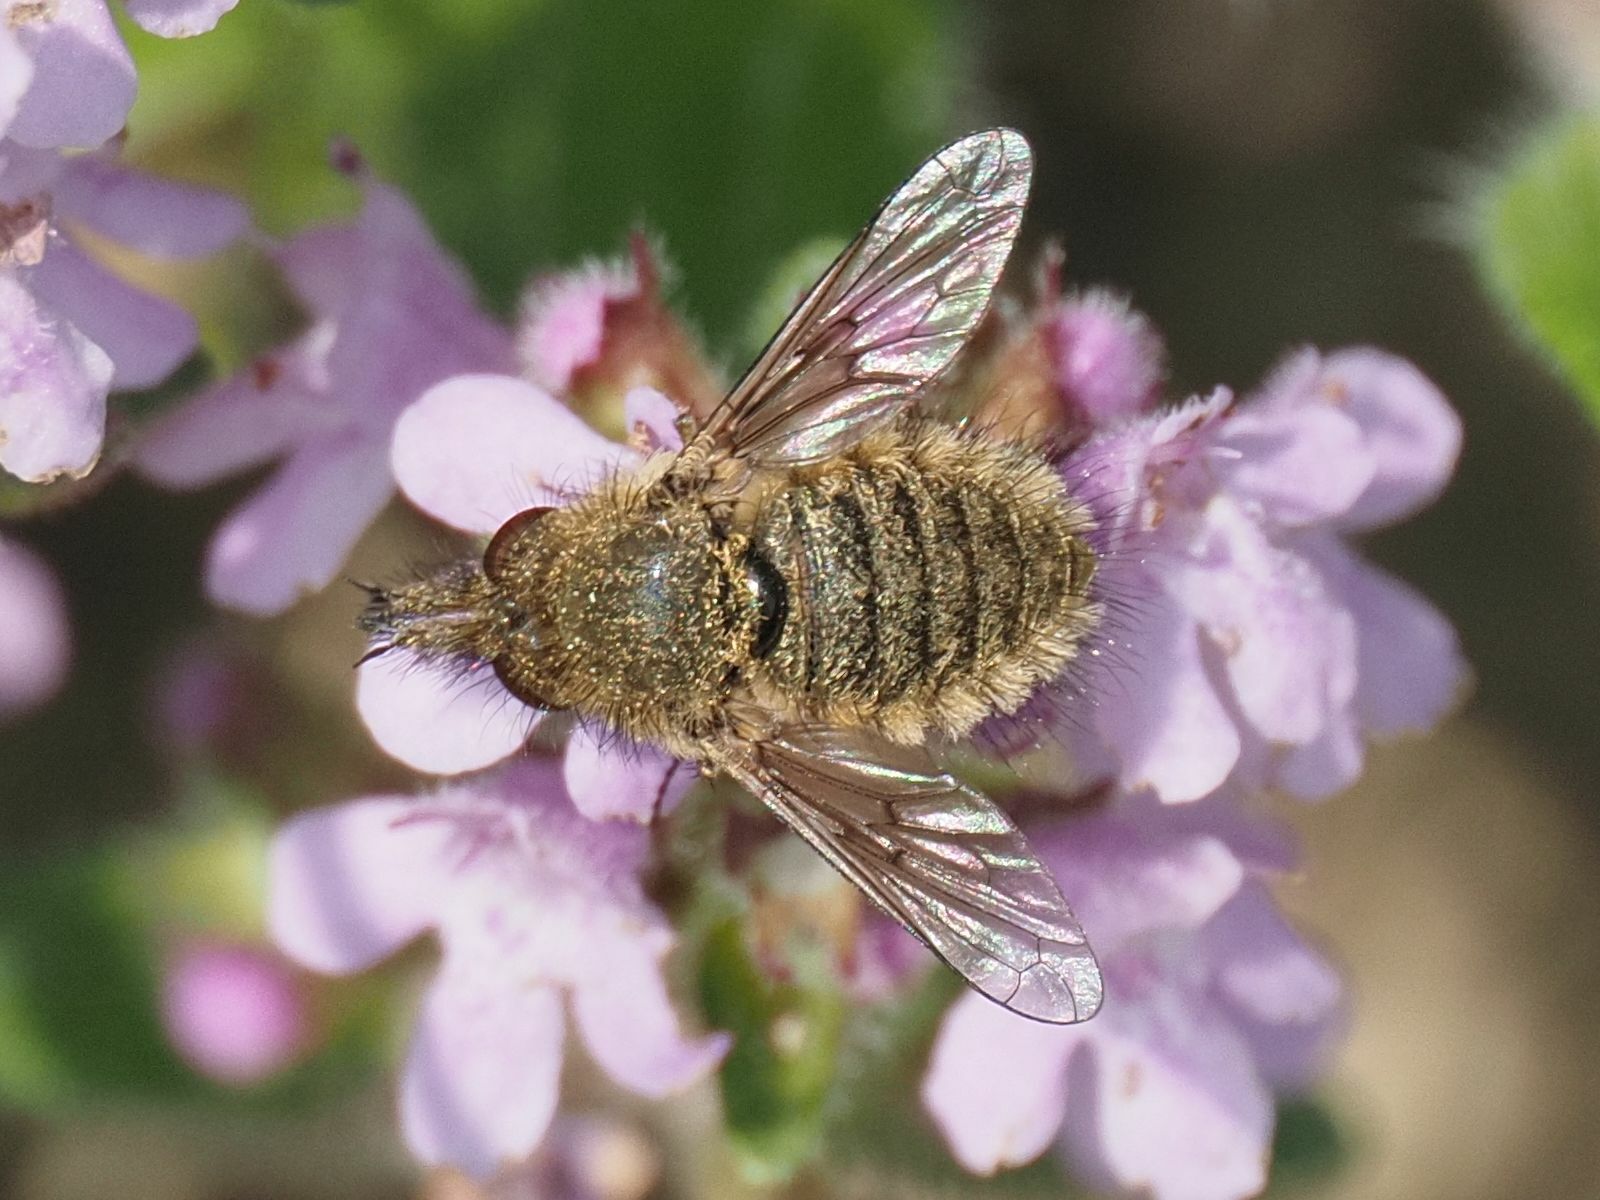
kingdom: Animalia
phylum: Arthropoda
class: Insecta
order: Diptera
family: Bombyliidae
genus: Conophorus
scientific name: Conophorus virescens
